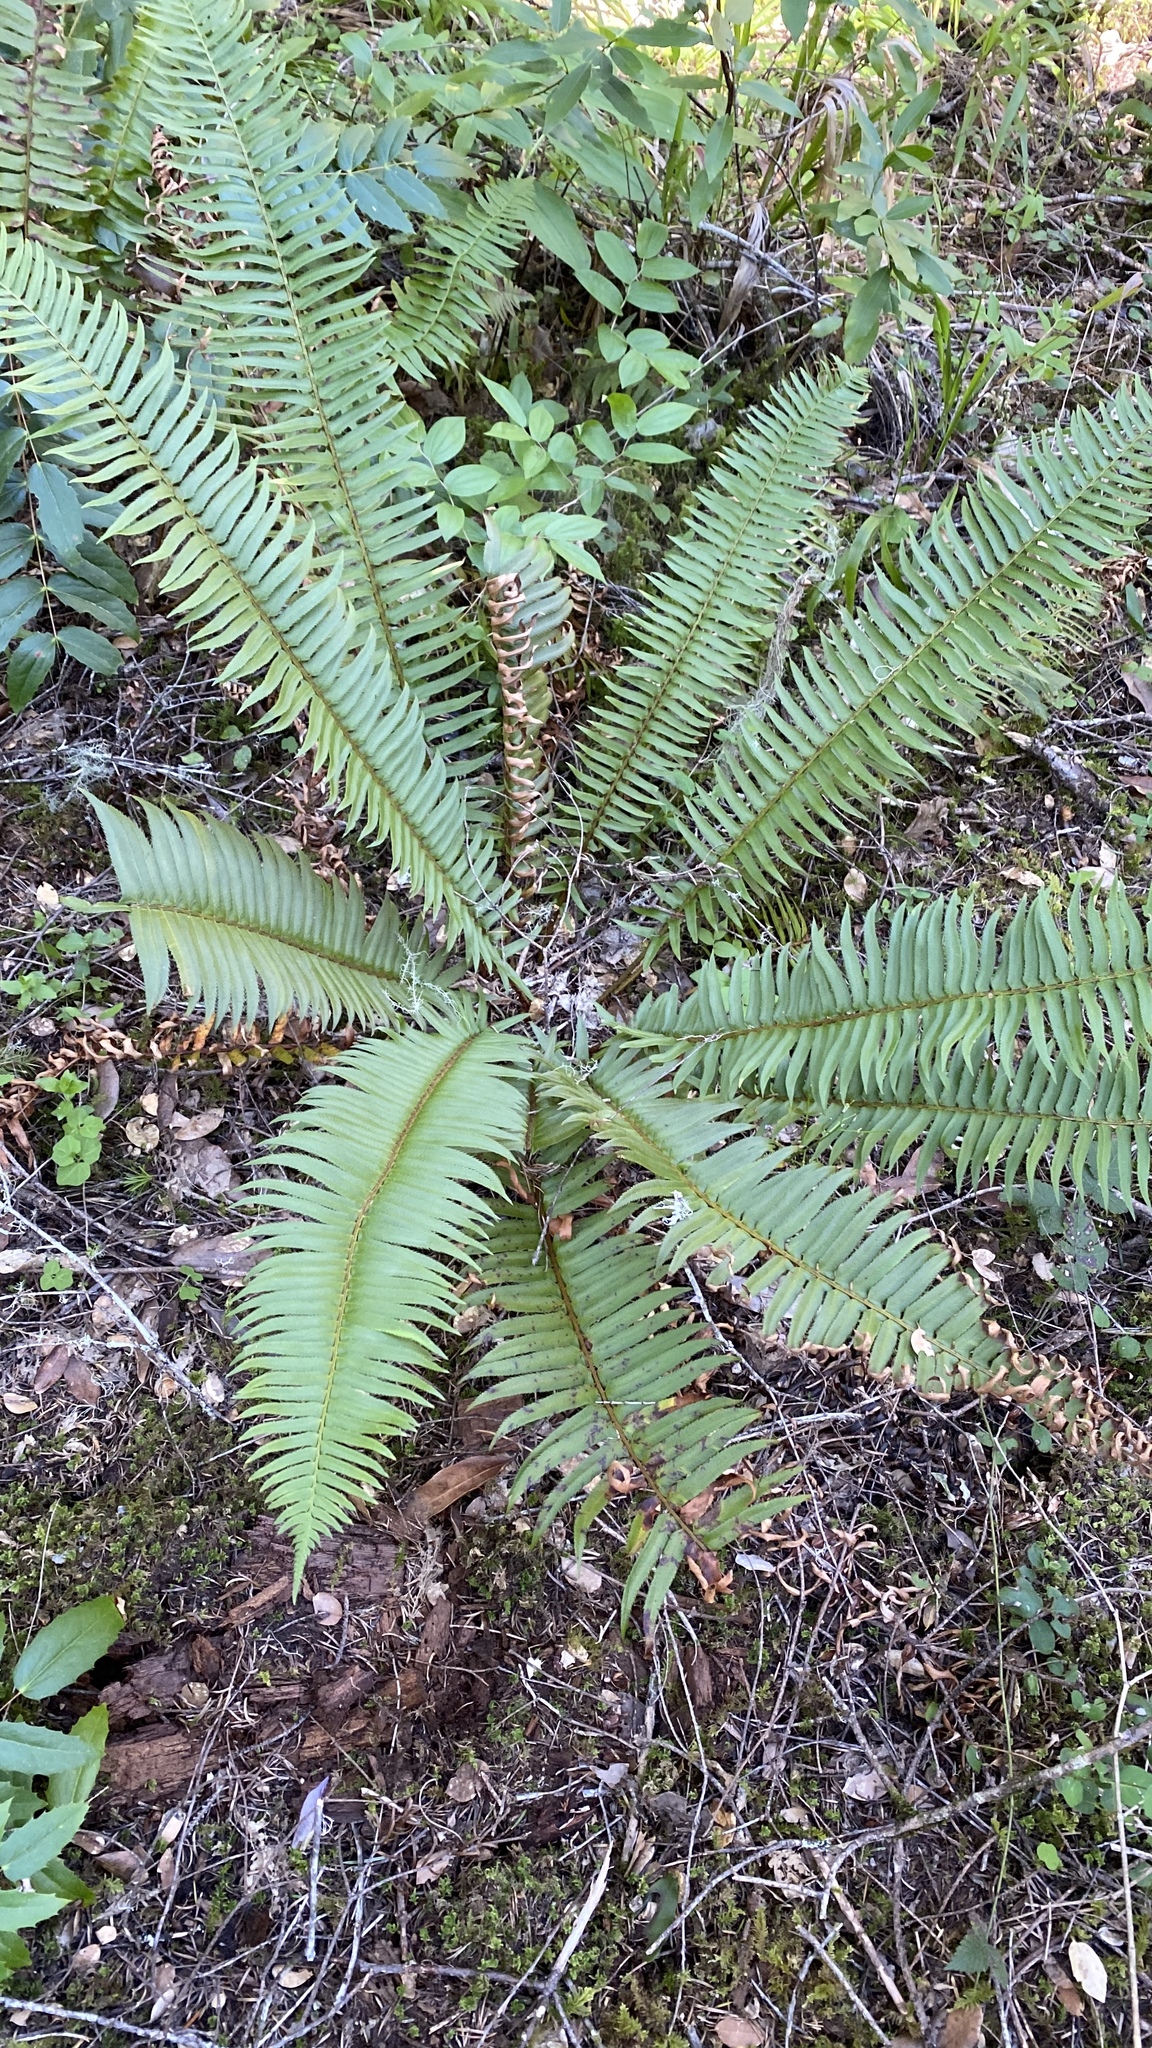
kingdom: Plantae
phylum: Tracheophyta
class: Polypodiopsida
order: Polypodiales
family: Dryopteridaceae
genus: Polystichum
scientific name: Polystichum munitum
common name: Western sword-fern
